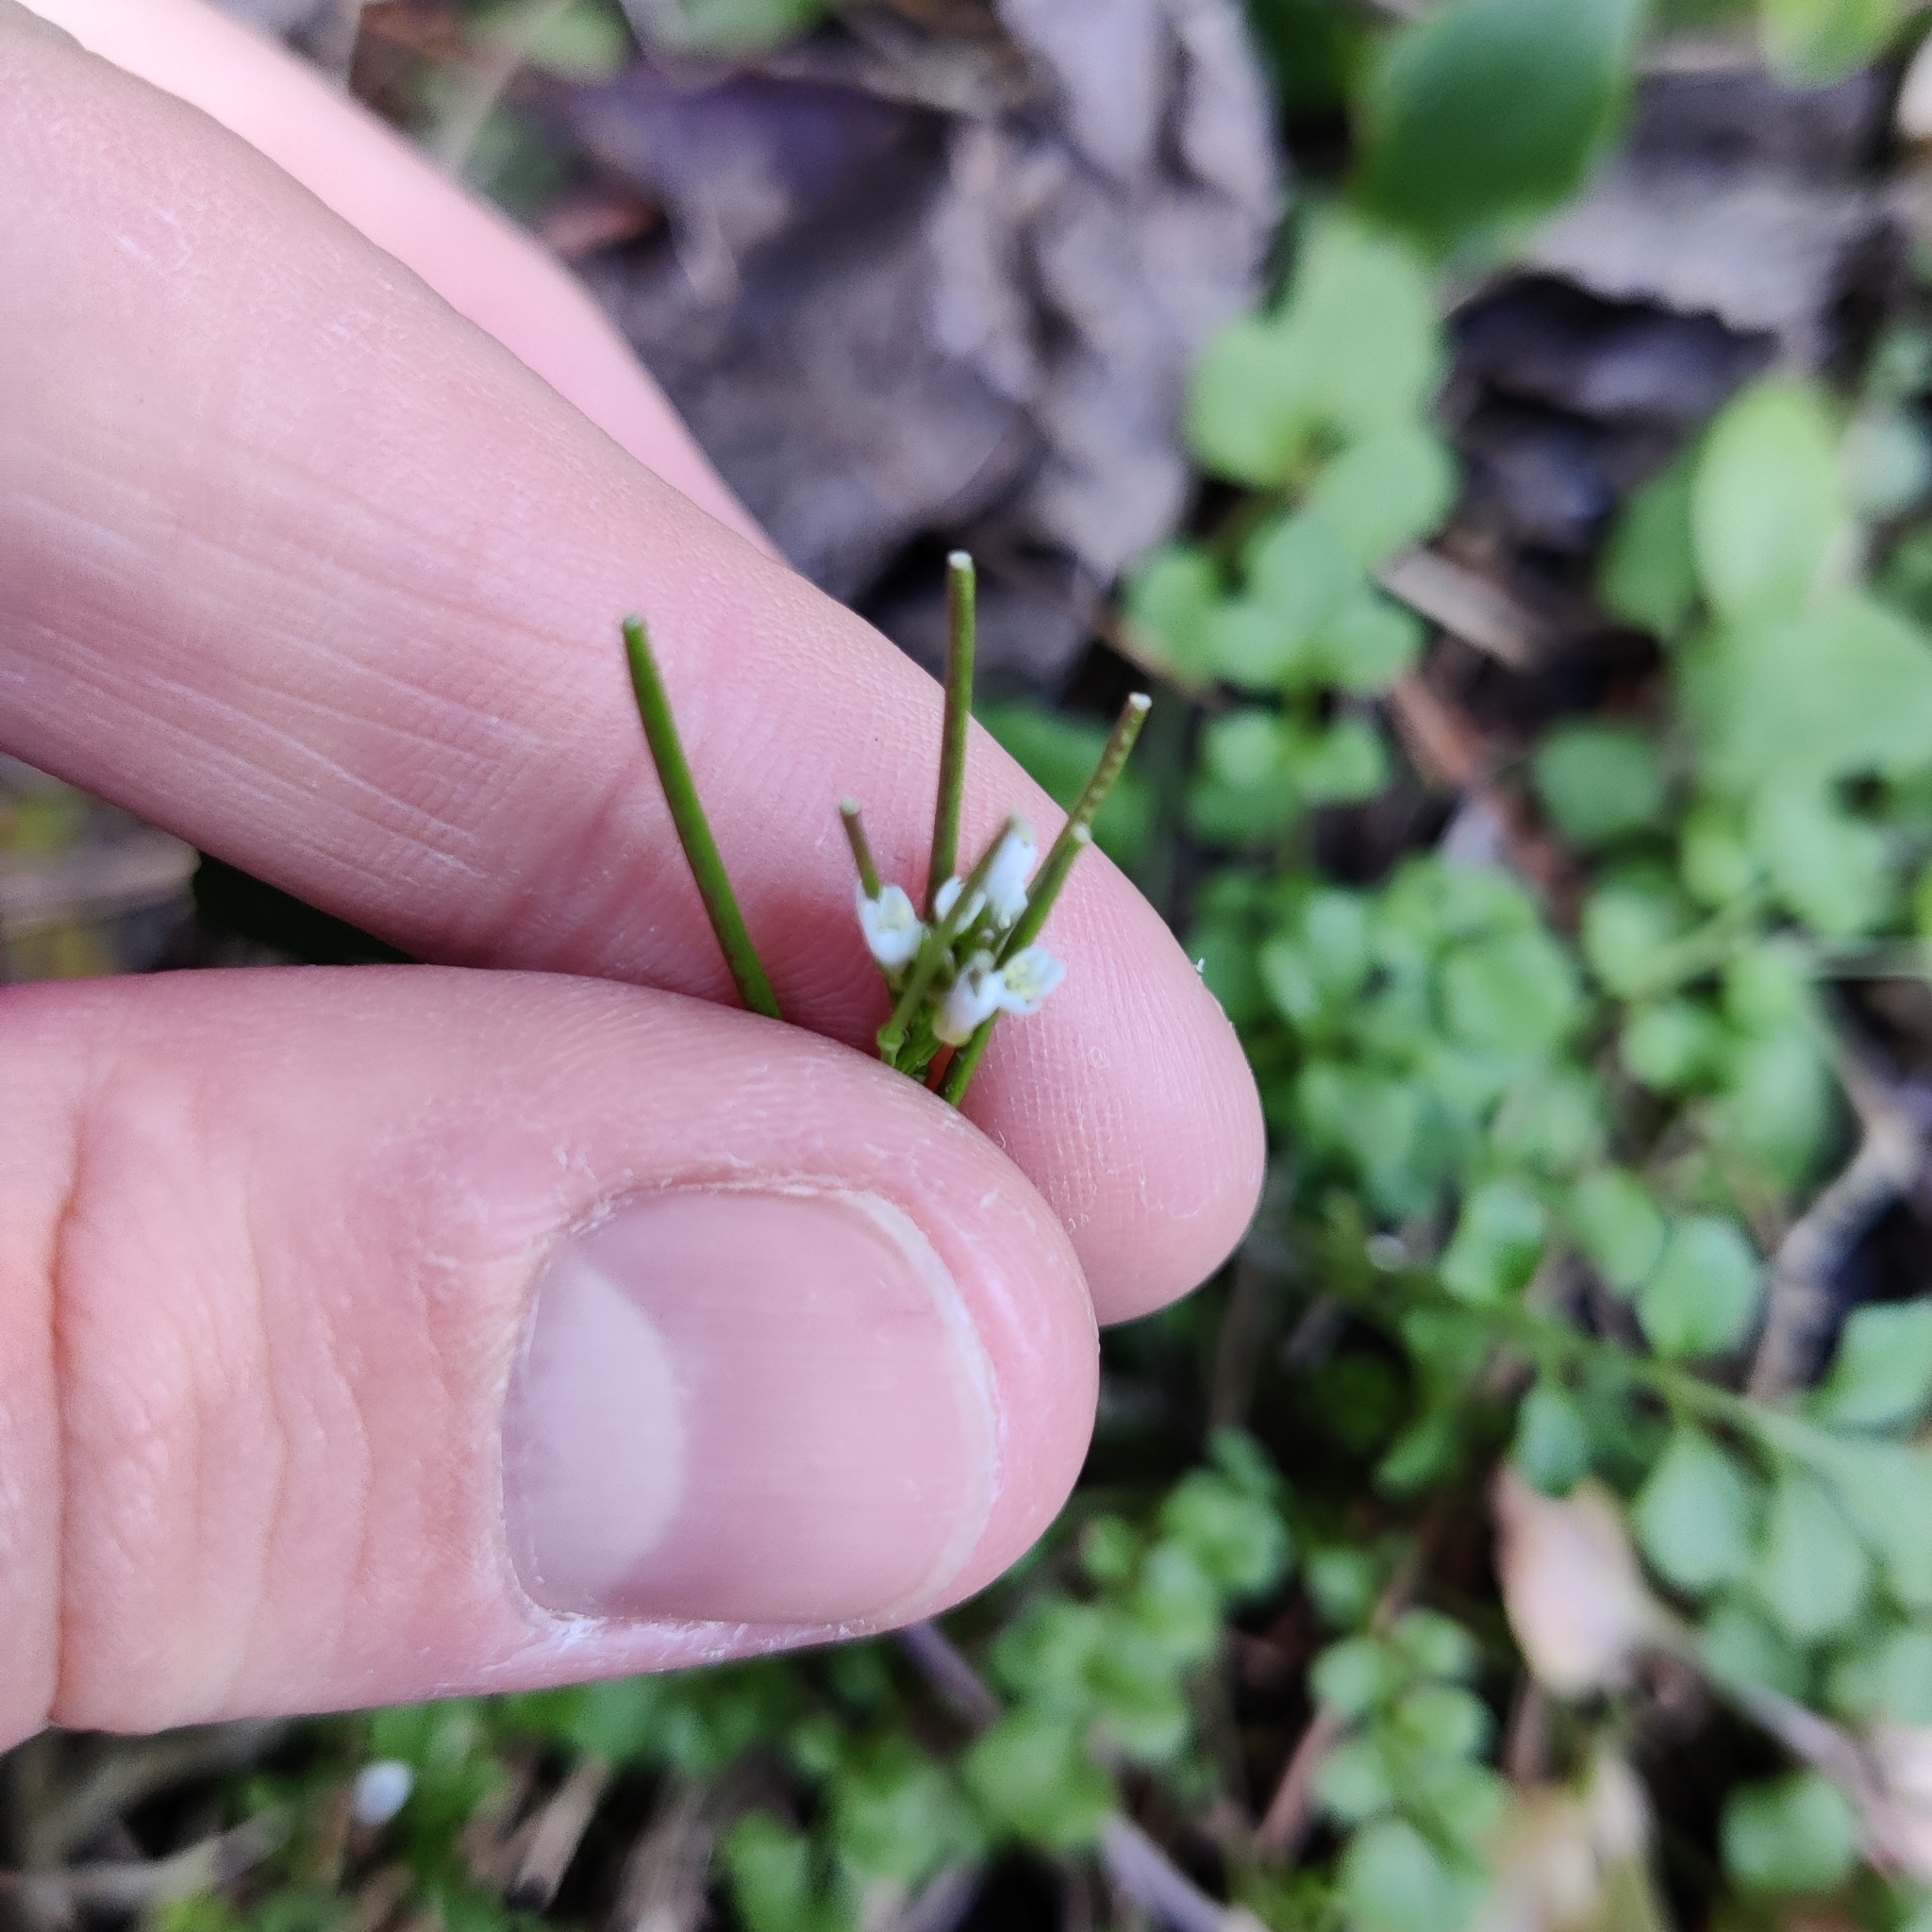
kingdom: Plantae
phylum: Tracheophyta
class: Magnoliopsida
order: Brassicales
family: Brassicaceae
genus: Cardamine
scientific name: Cardamine hirsuta
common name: Hairy bittercress
